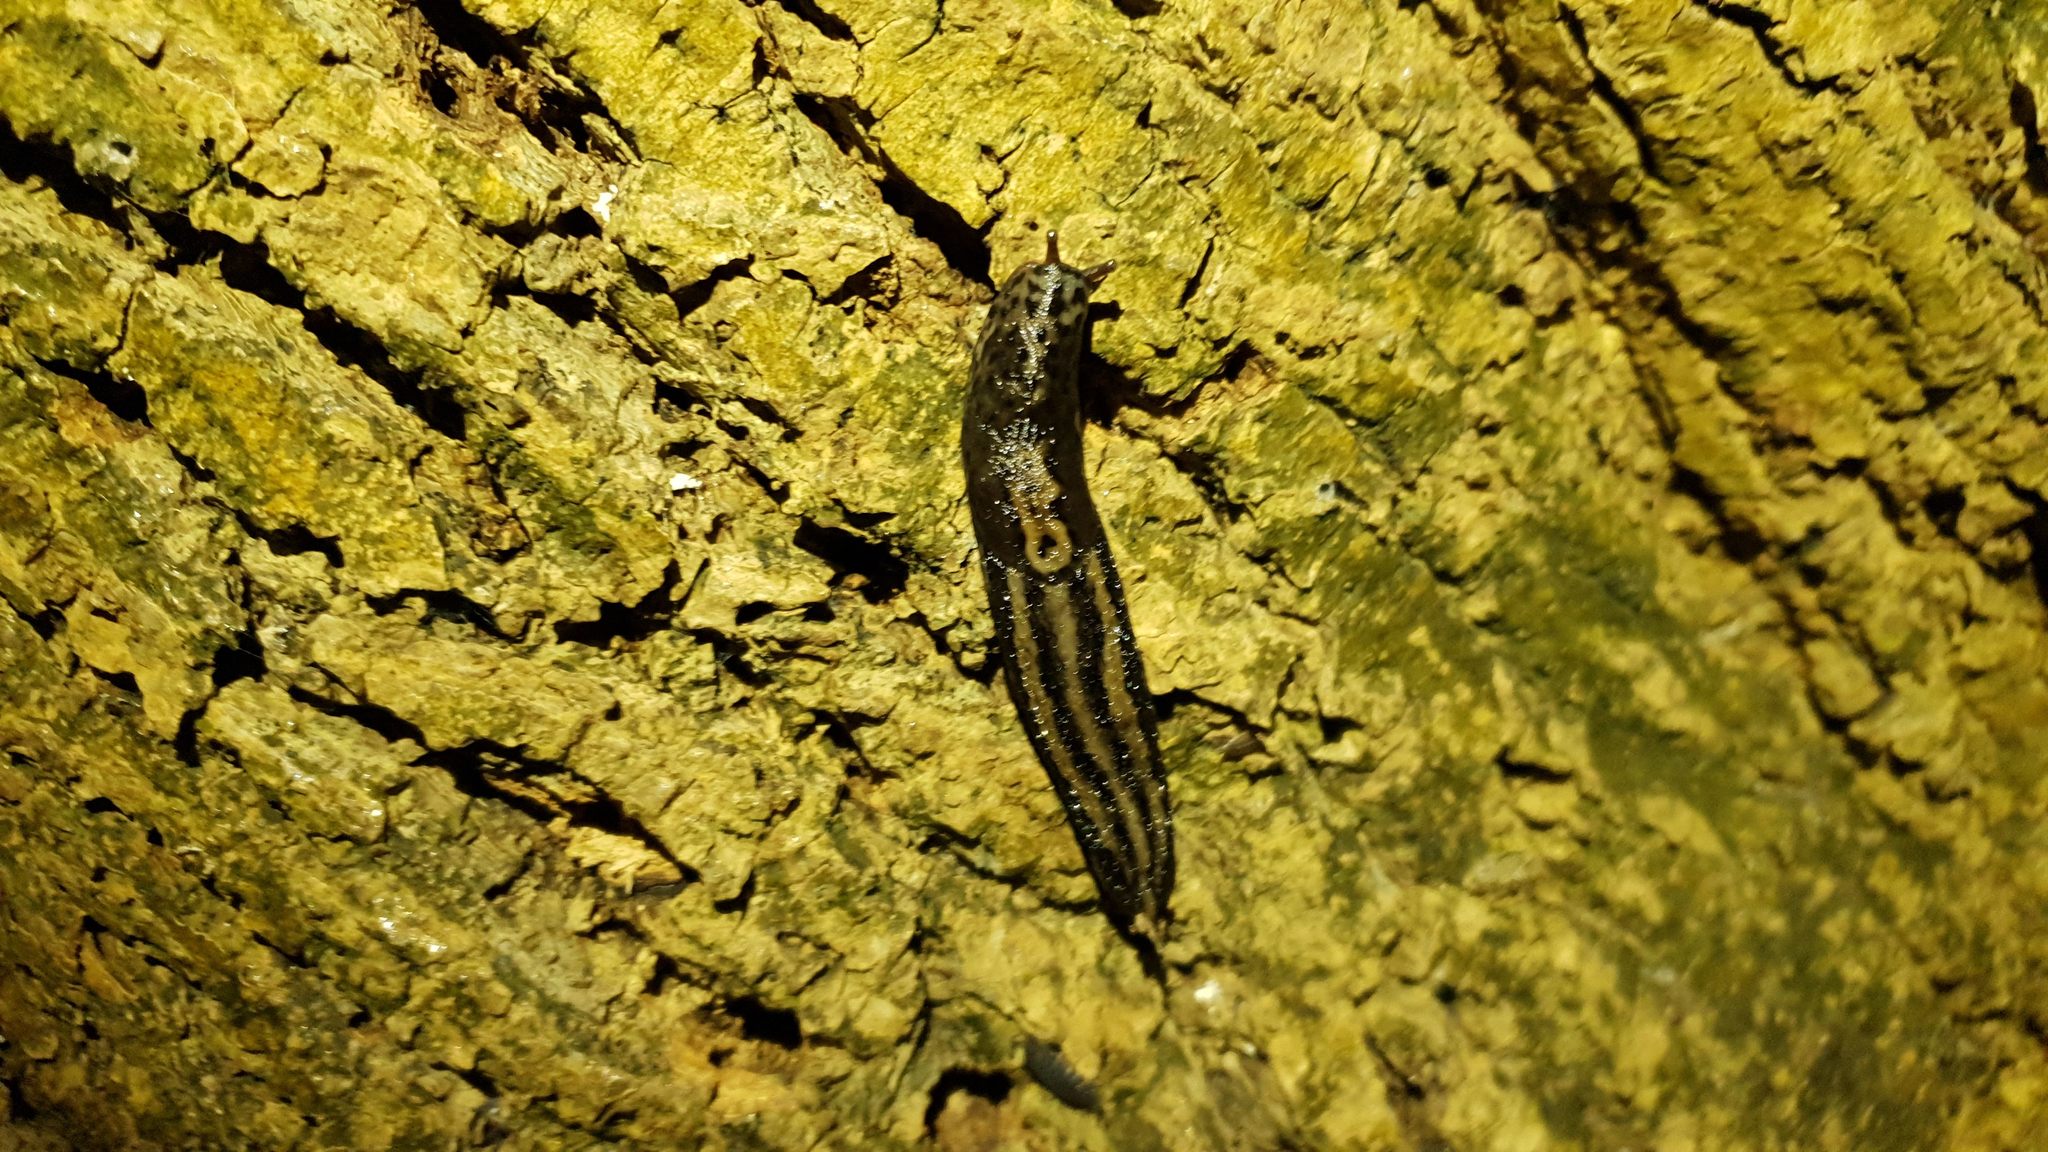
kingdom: Animalia
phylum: Mollusca
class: Gastropoda
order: Stylommatophora
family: Limacidae
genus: Limax
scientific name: Limax maximus
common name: Great grey slug
